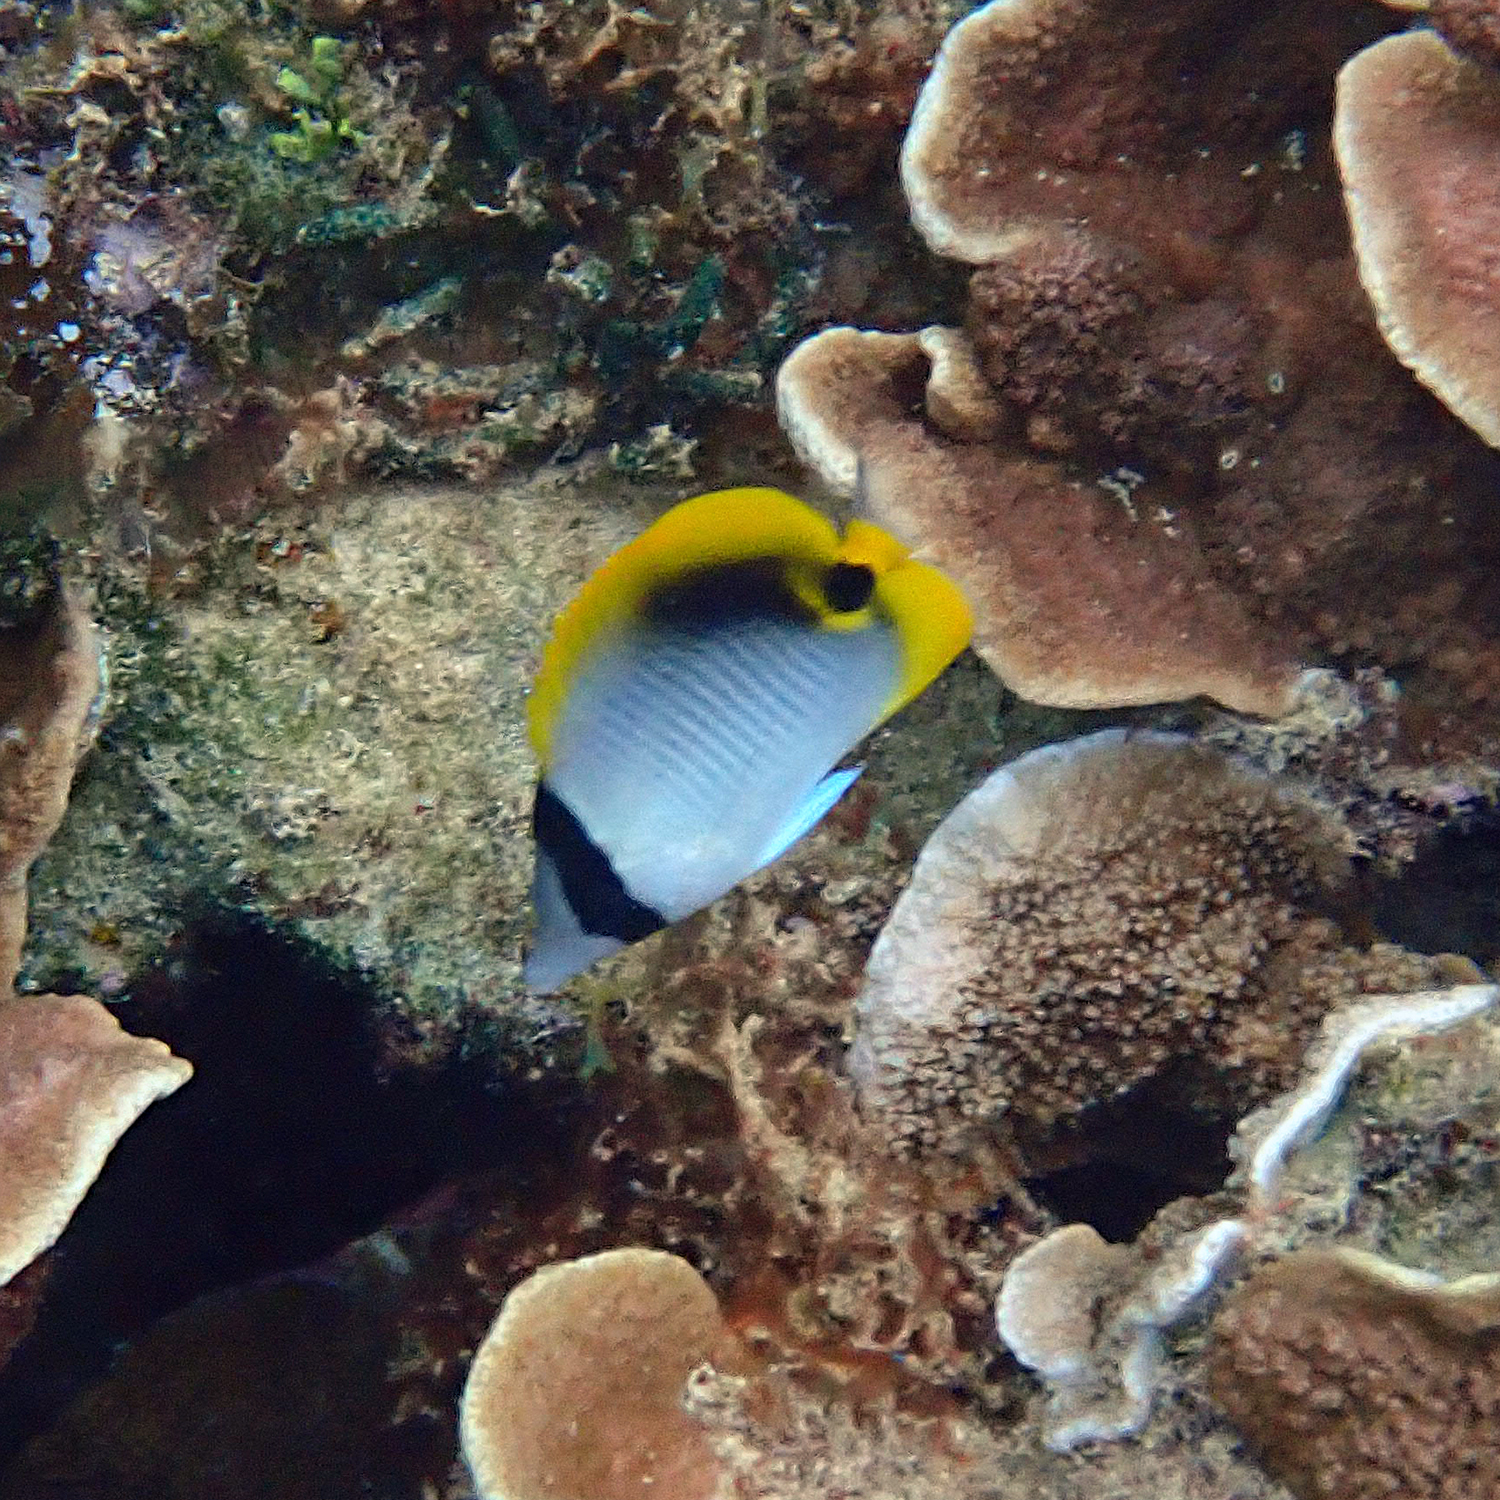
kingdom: Animalia
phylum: Chordata
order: Perciformes
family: Chaetodontidae
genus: Chaetodon
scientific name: Chaetodon lineolatus
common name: Lined butterflyfish
